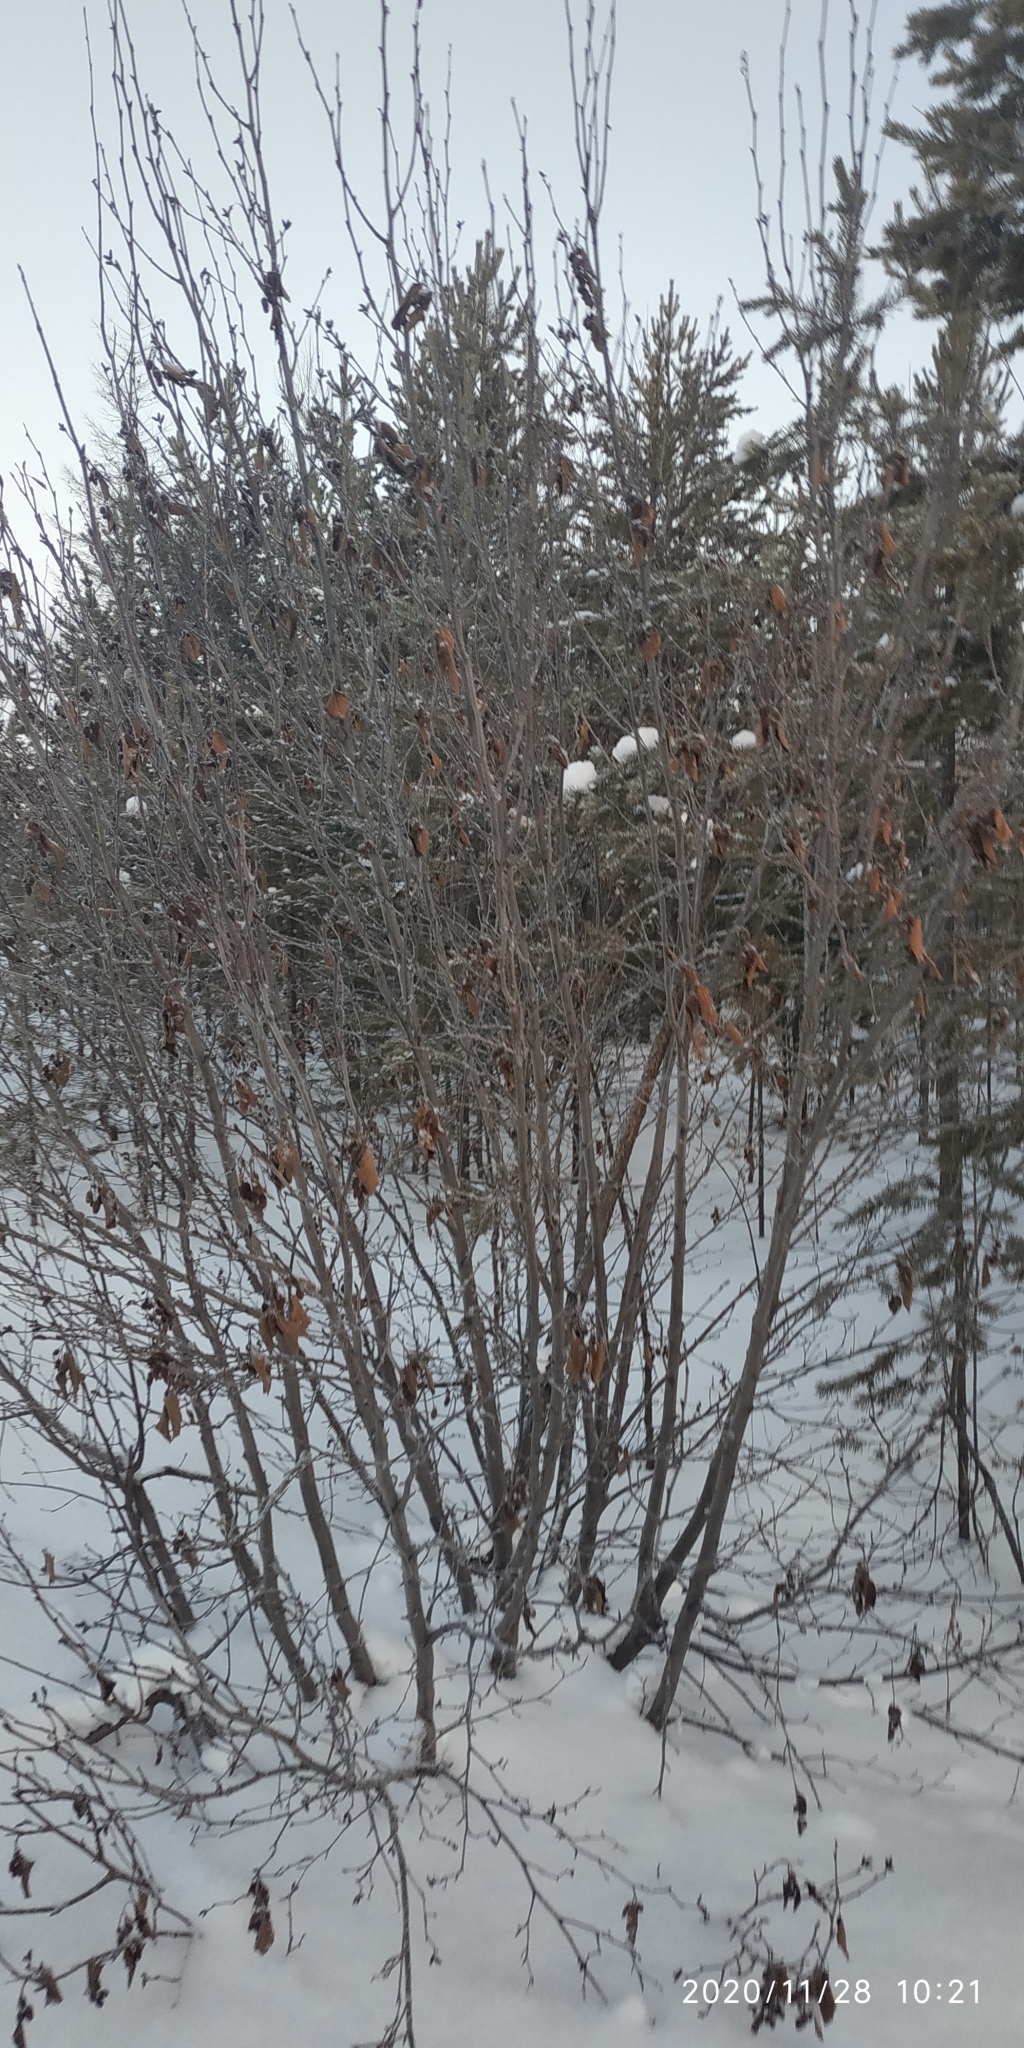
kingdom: Plantae
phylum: Tracheophyta
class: Magnoliopsida
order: Fagales
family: Betulaceae
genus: Alnus
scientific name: Alnus alnobetula
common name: Green alder
